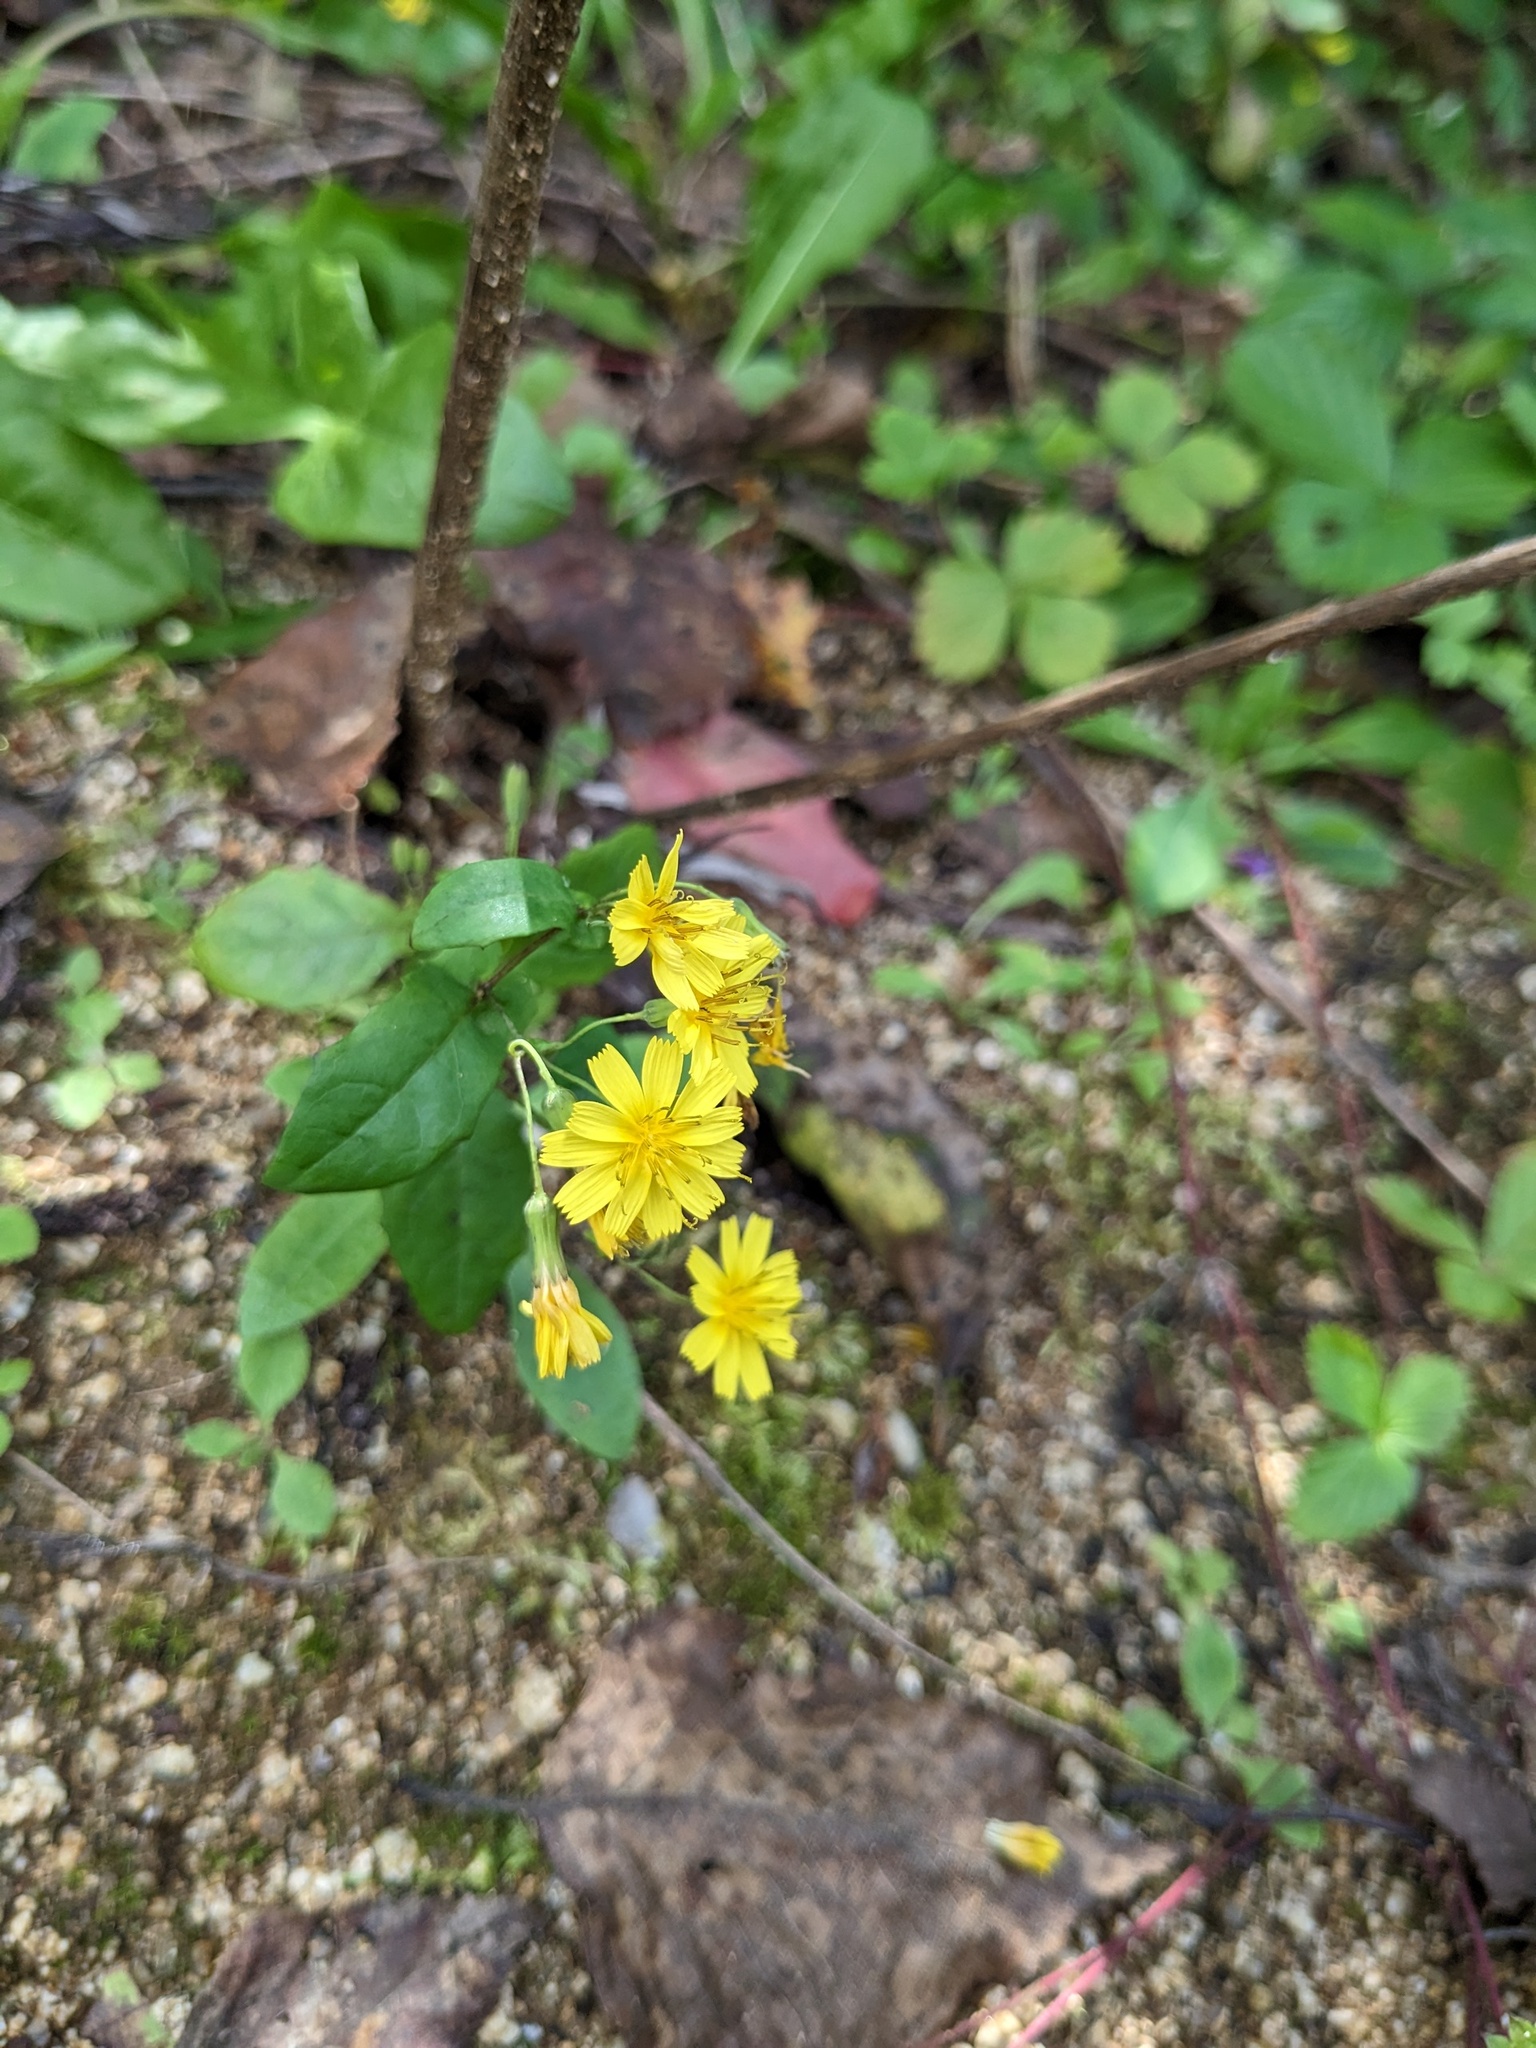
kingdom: Plantae
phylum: Tracheophyta
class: Magnoliopsida
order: Asterales
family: Asteraceae
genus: Crepidiastrum
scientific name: Crepidiastrum denticulatum
